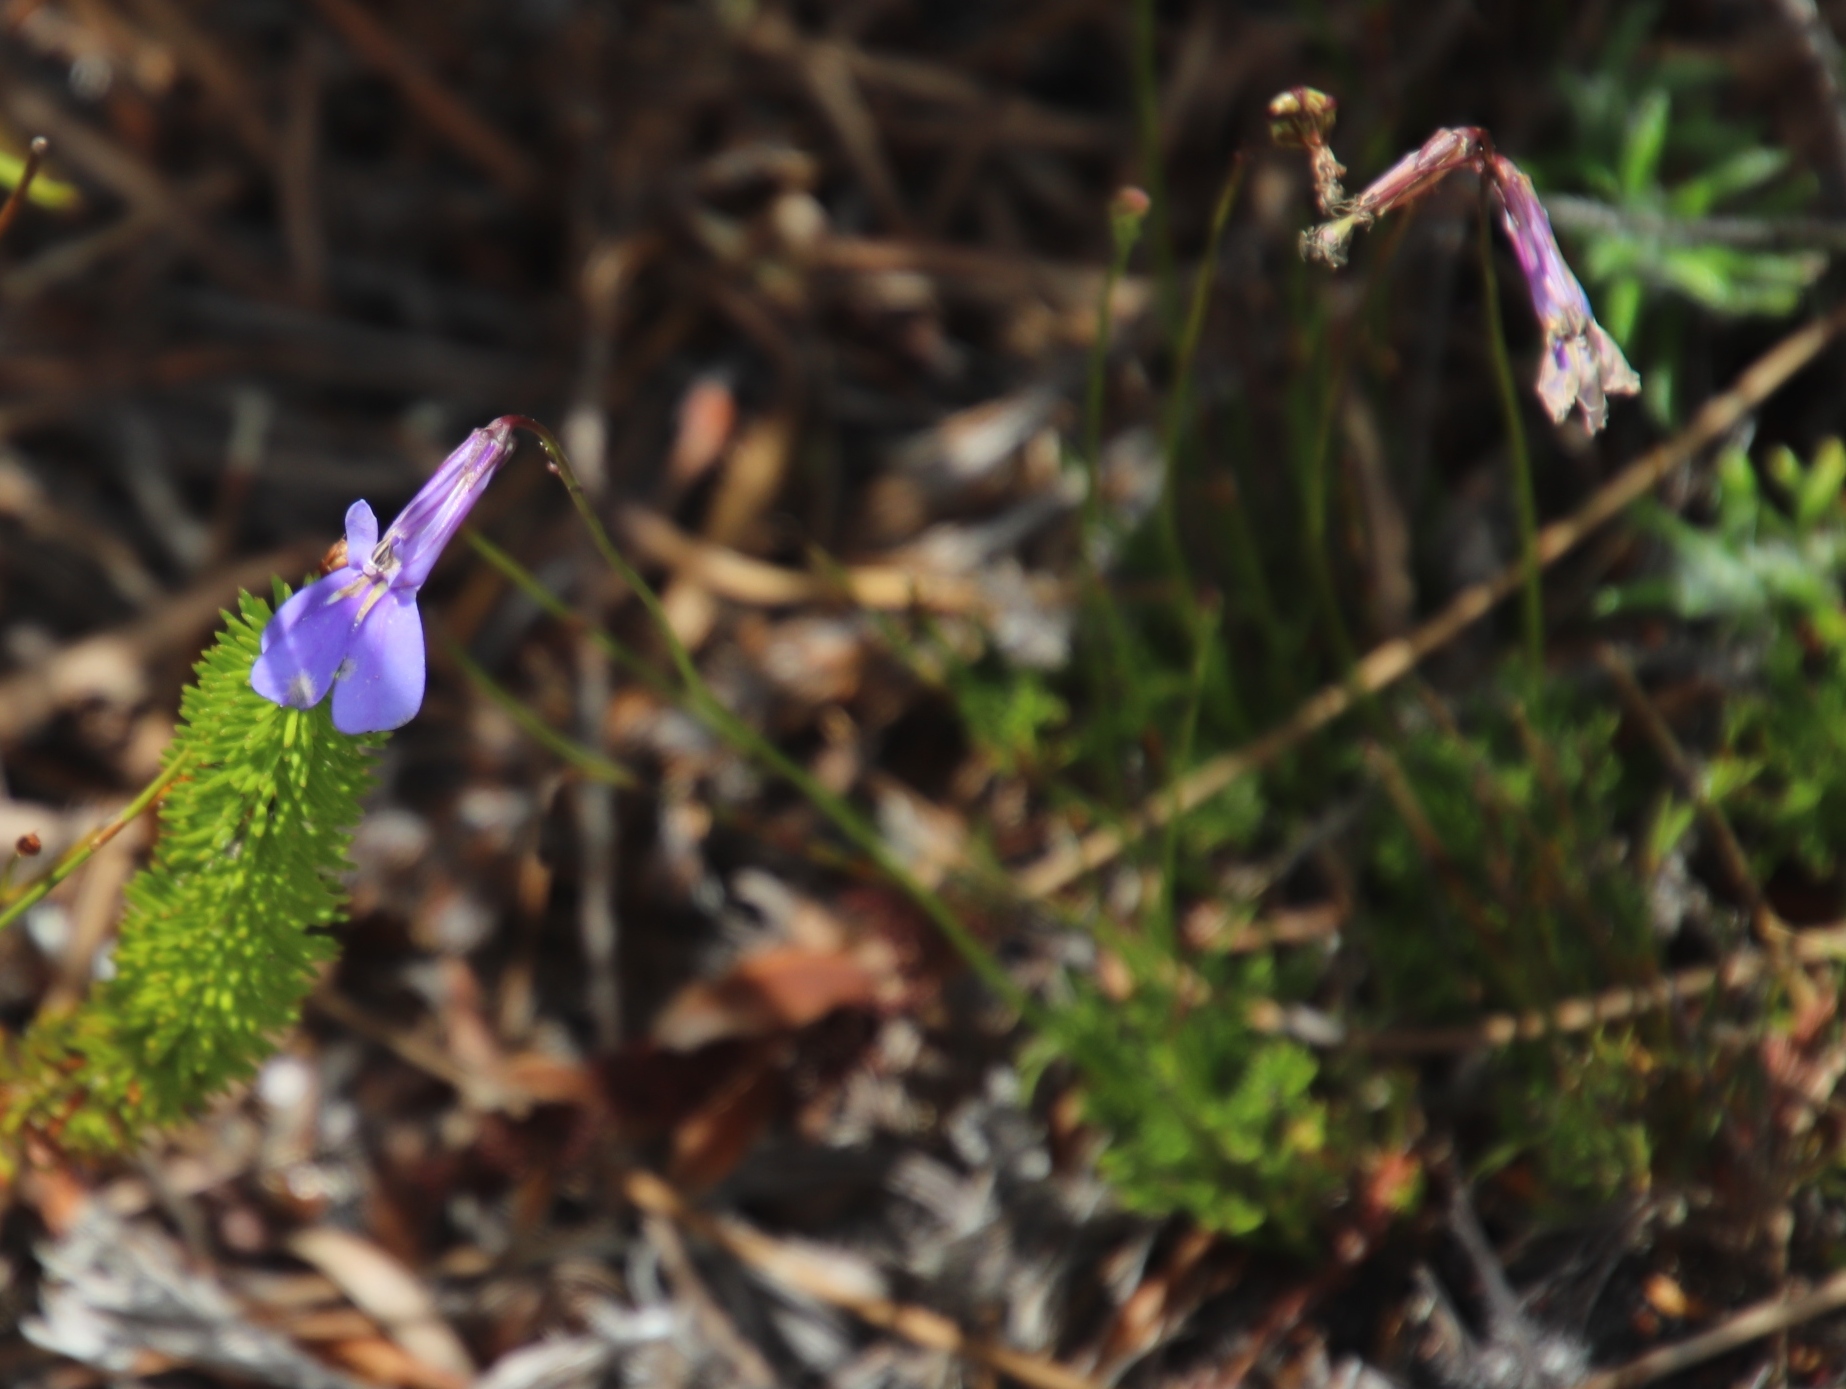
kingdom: Plantae
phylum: Tracheophyta
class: Magnoliopsida
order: Asterales
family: Campanulaceae
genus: Lobelia
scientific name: Lobelia coronopifolia
